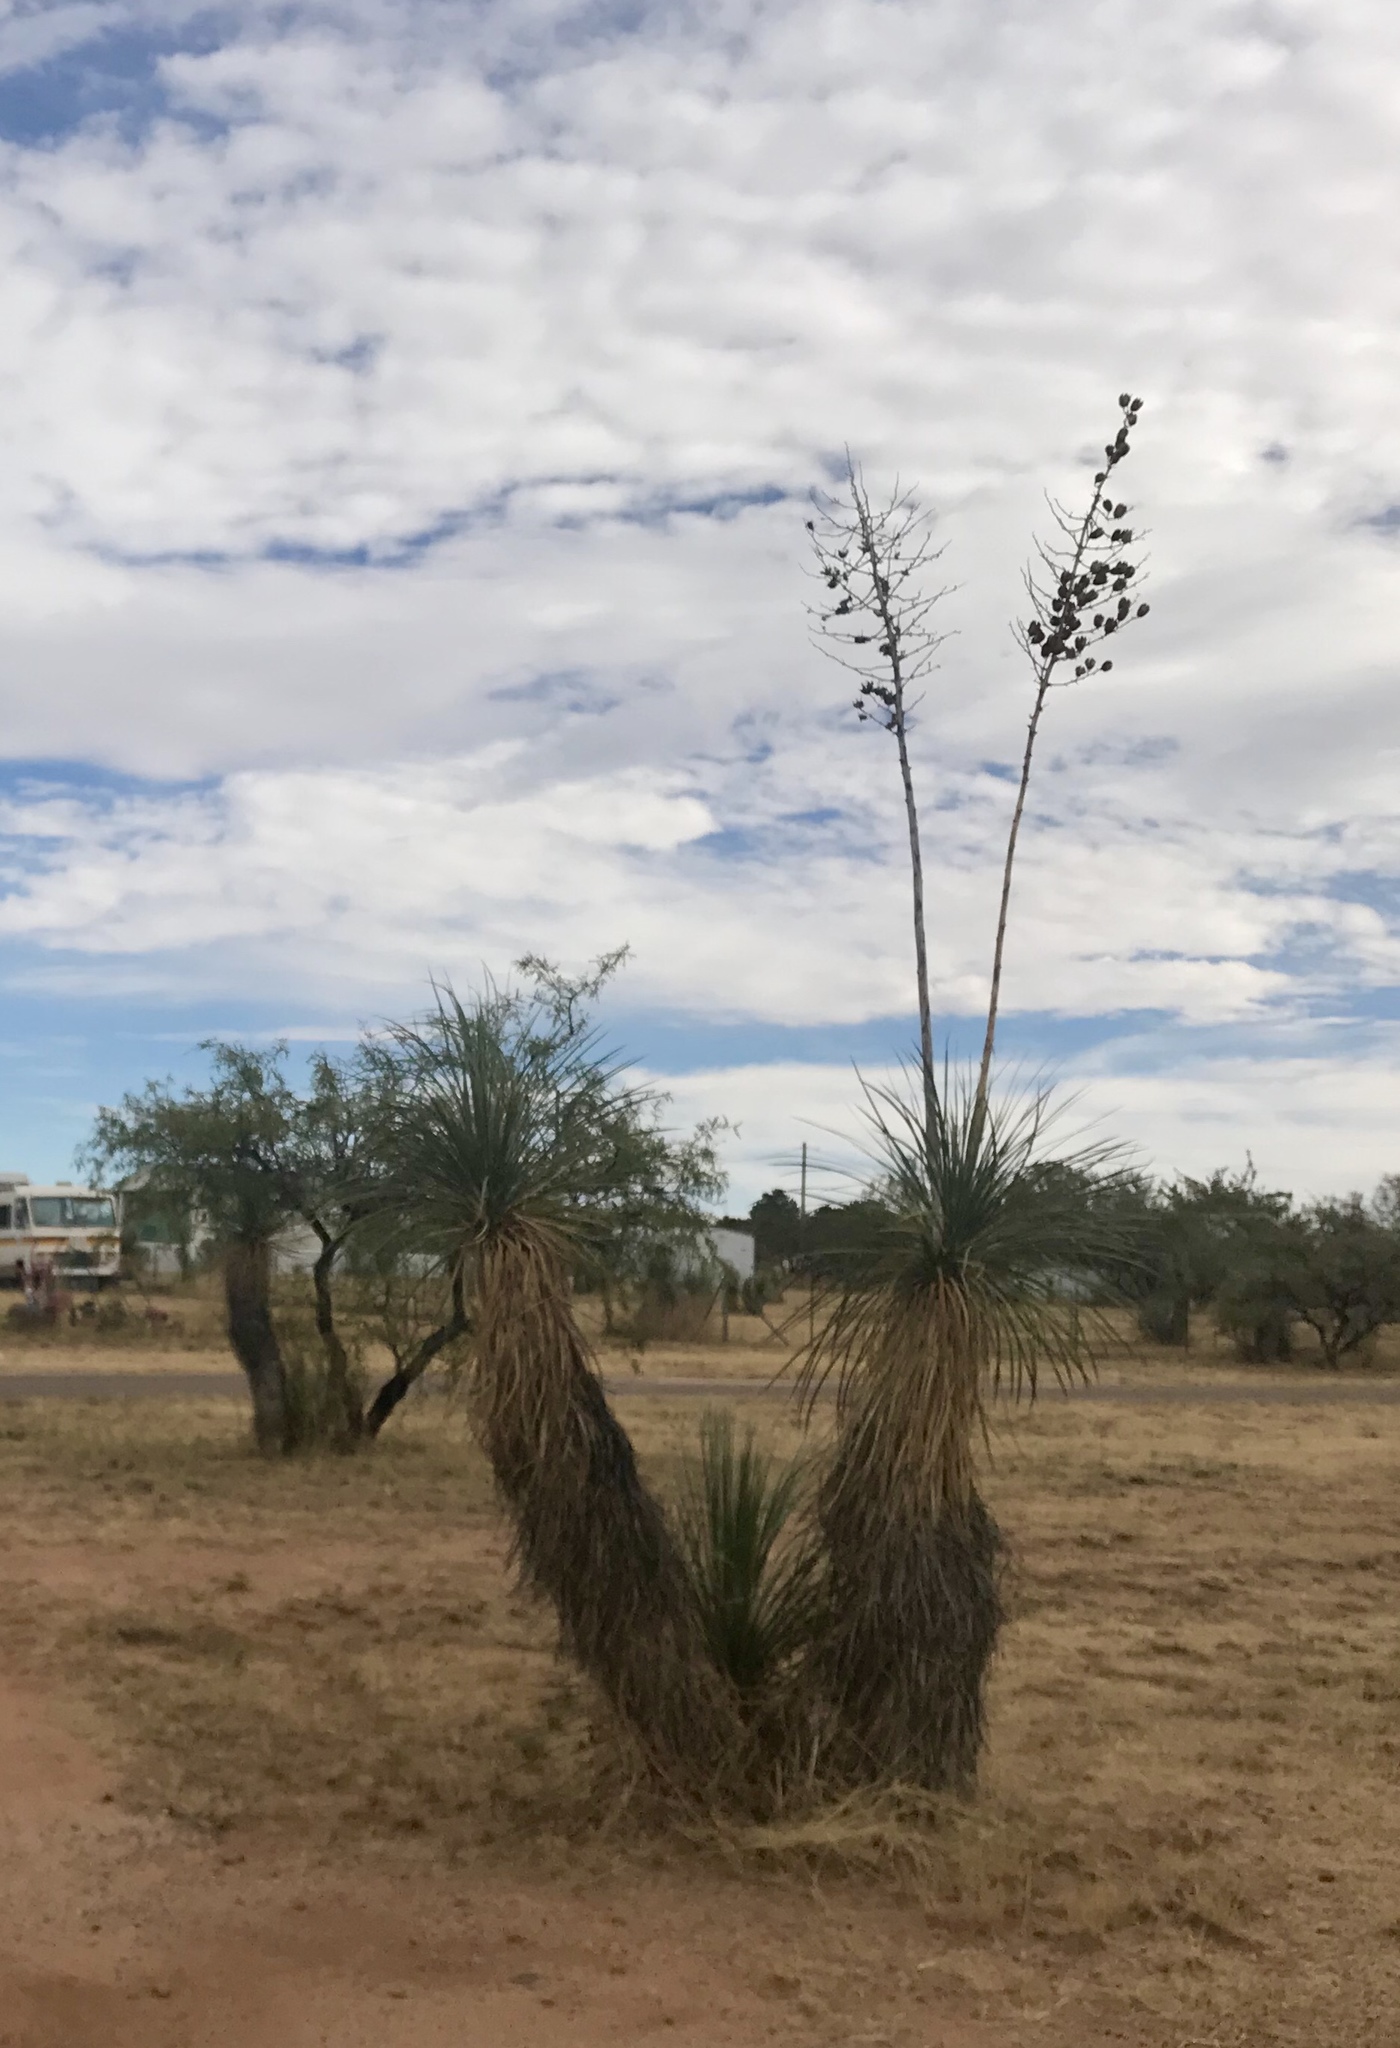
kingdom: Plantae
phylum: Tracheophyta
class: Liliopsida
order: Asparagales
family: Asparagaceae
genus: Yucca
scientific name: Yucca elata
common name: Palmella
